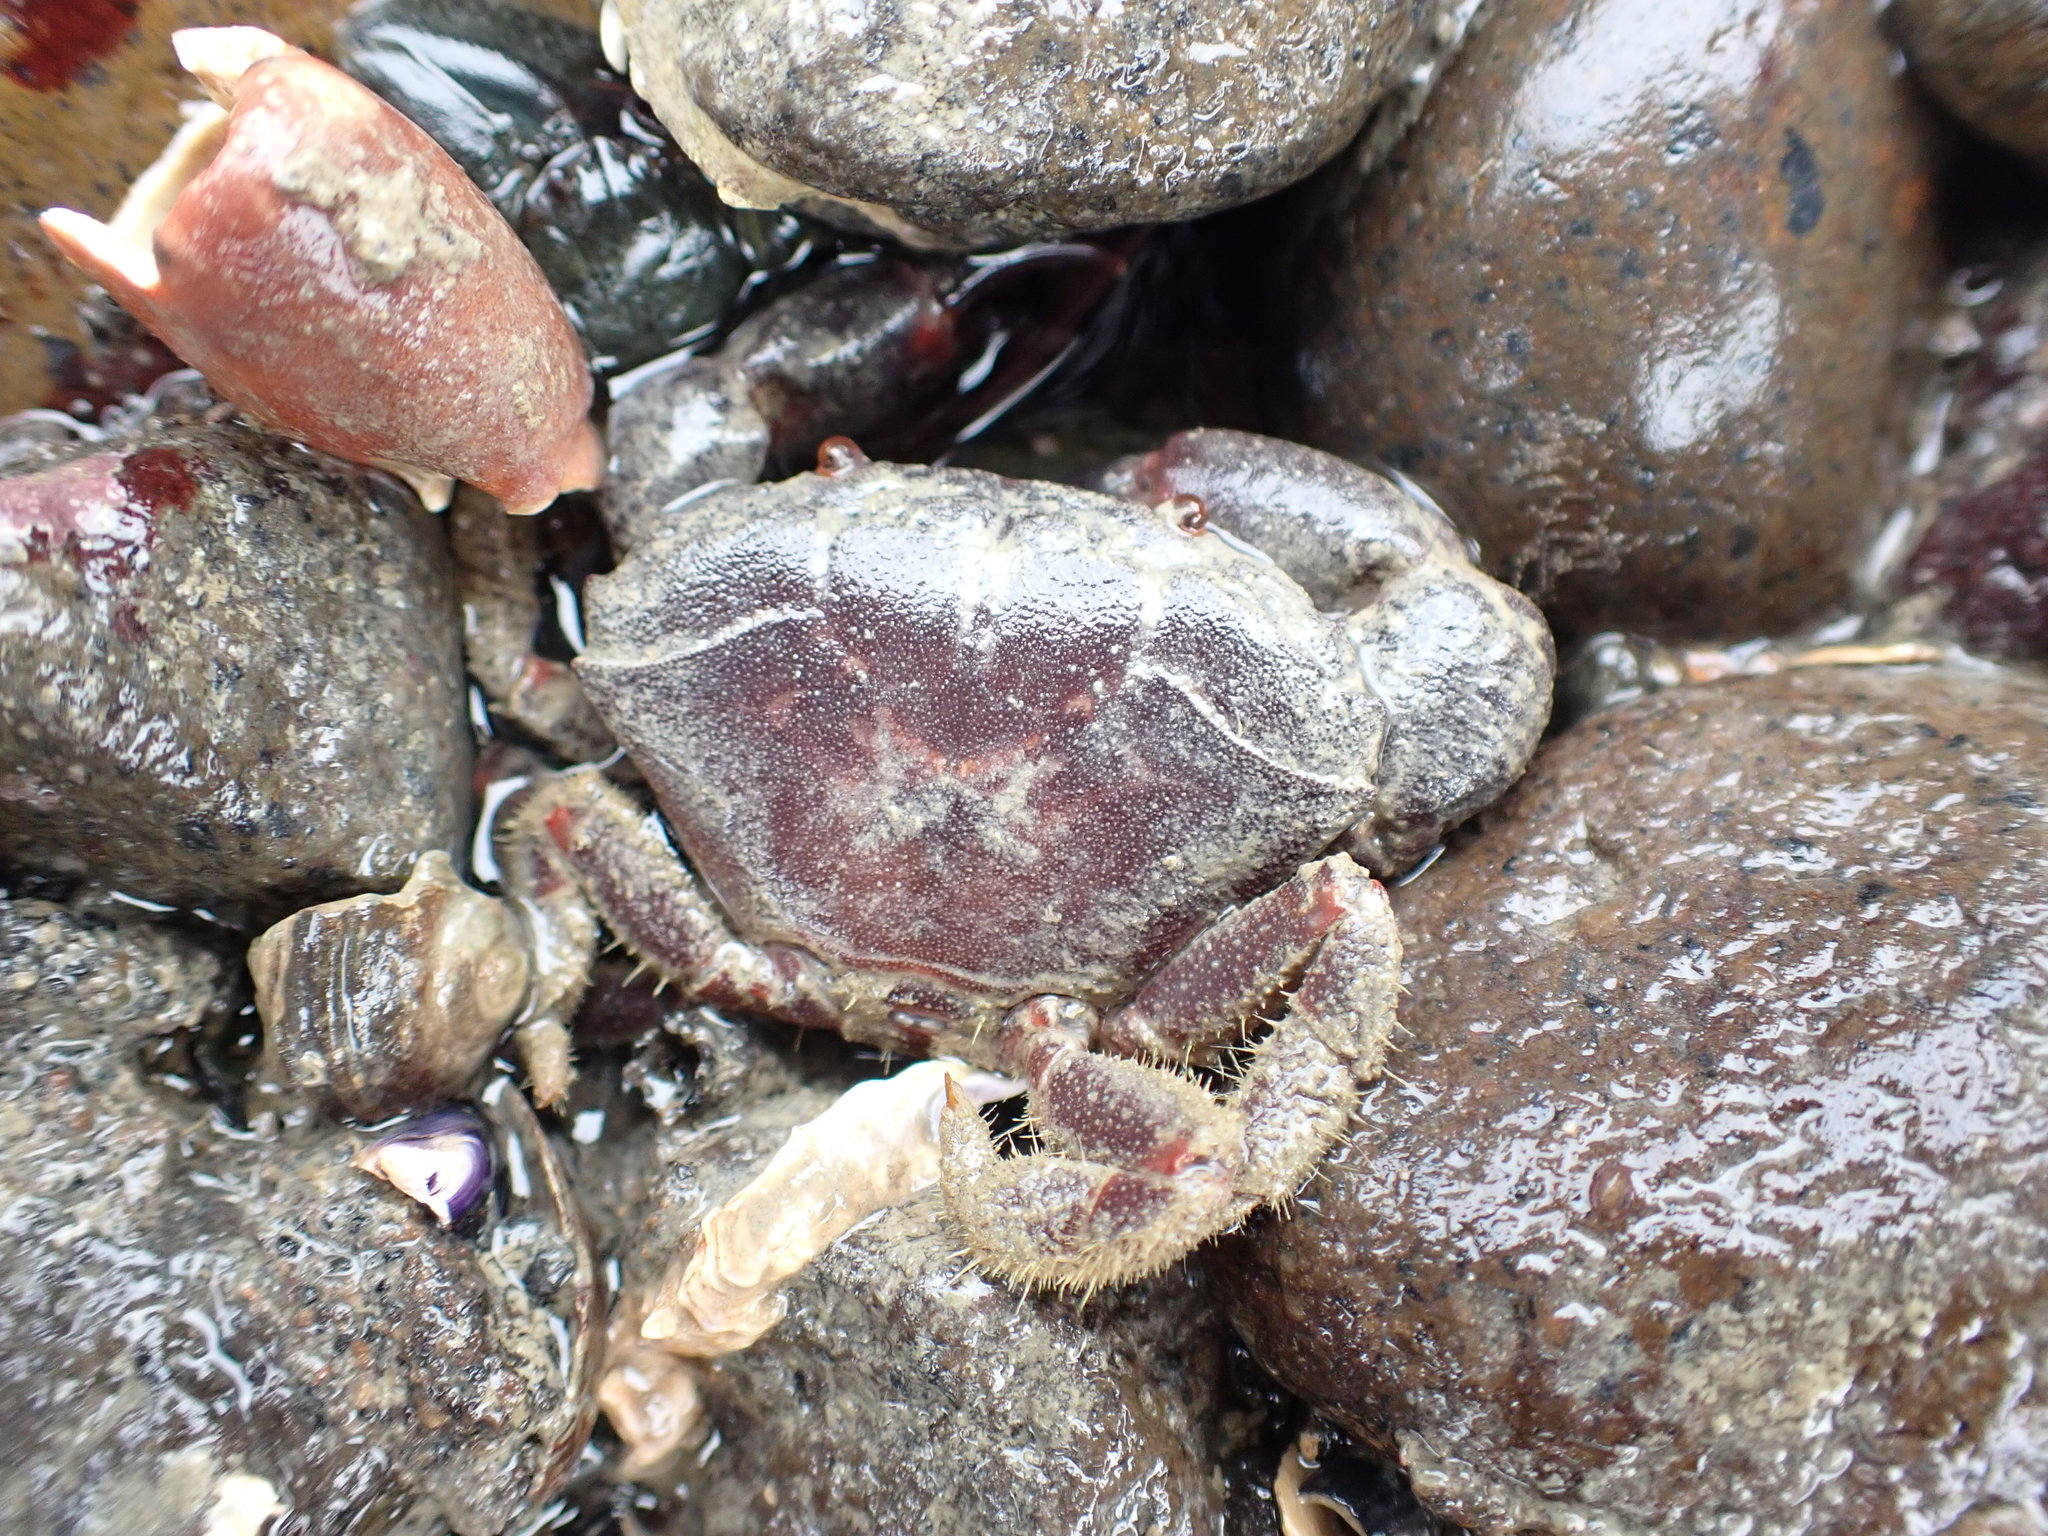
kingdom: Animalia
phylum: Arthropoda
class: Malacostraca
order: Decapoda
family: Oziidae
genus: Ozius
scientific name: Ozius deplanatus
